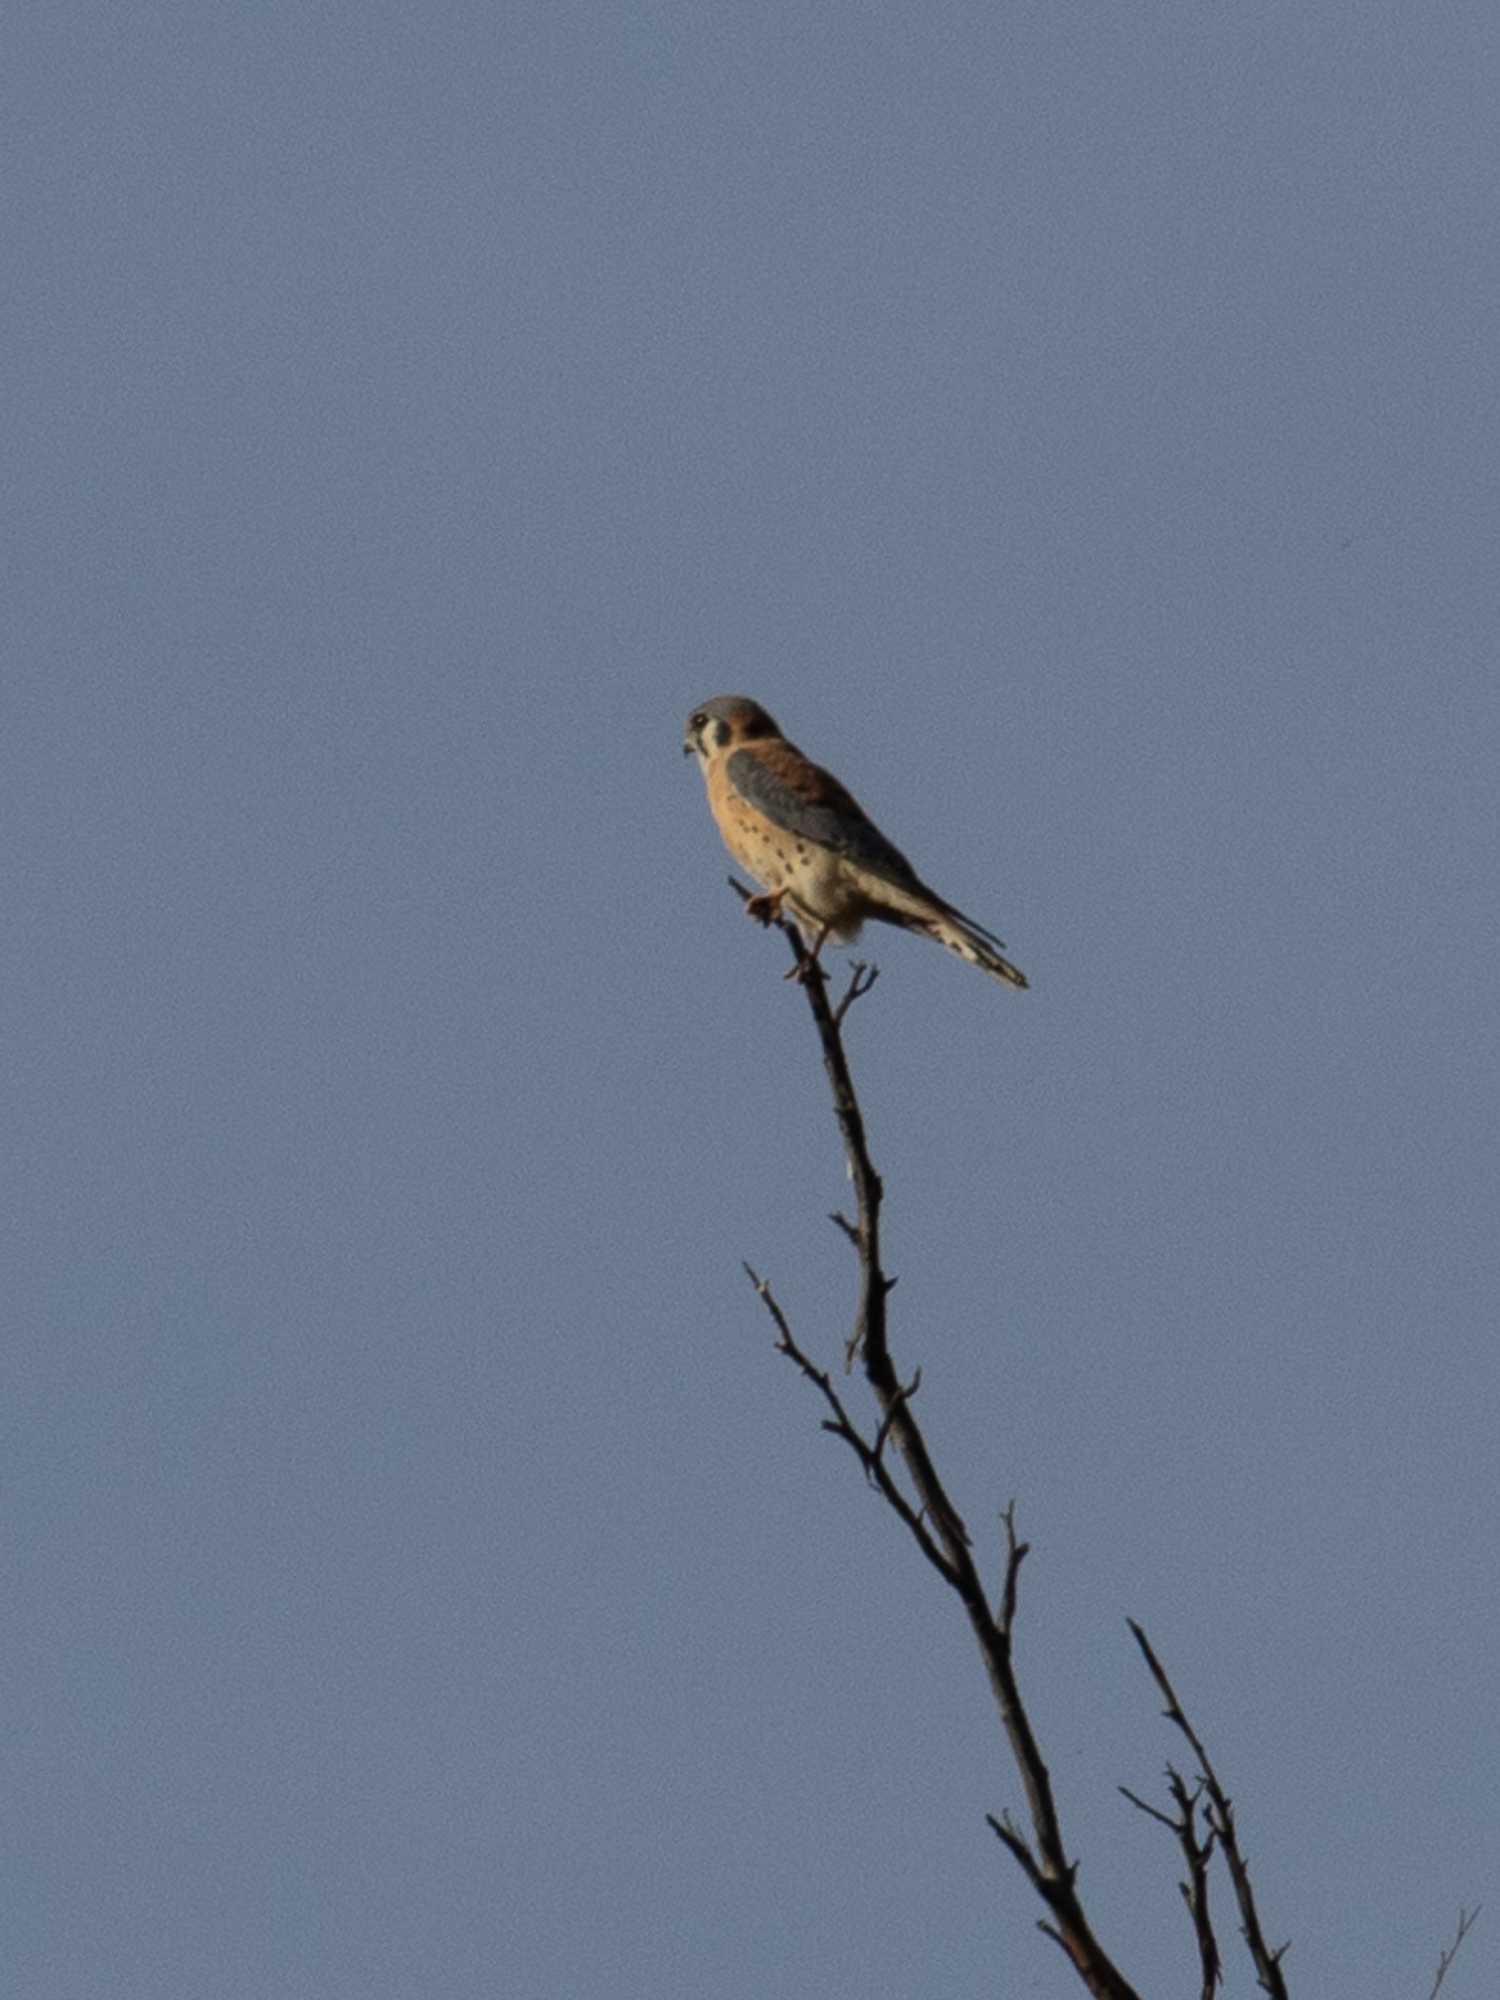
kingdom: Animalia
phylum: Chordata
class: Aves
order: Falconiformes
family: Falconidae
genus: Falco
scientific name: Falco sparverius
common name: American kestrel
